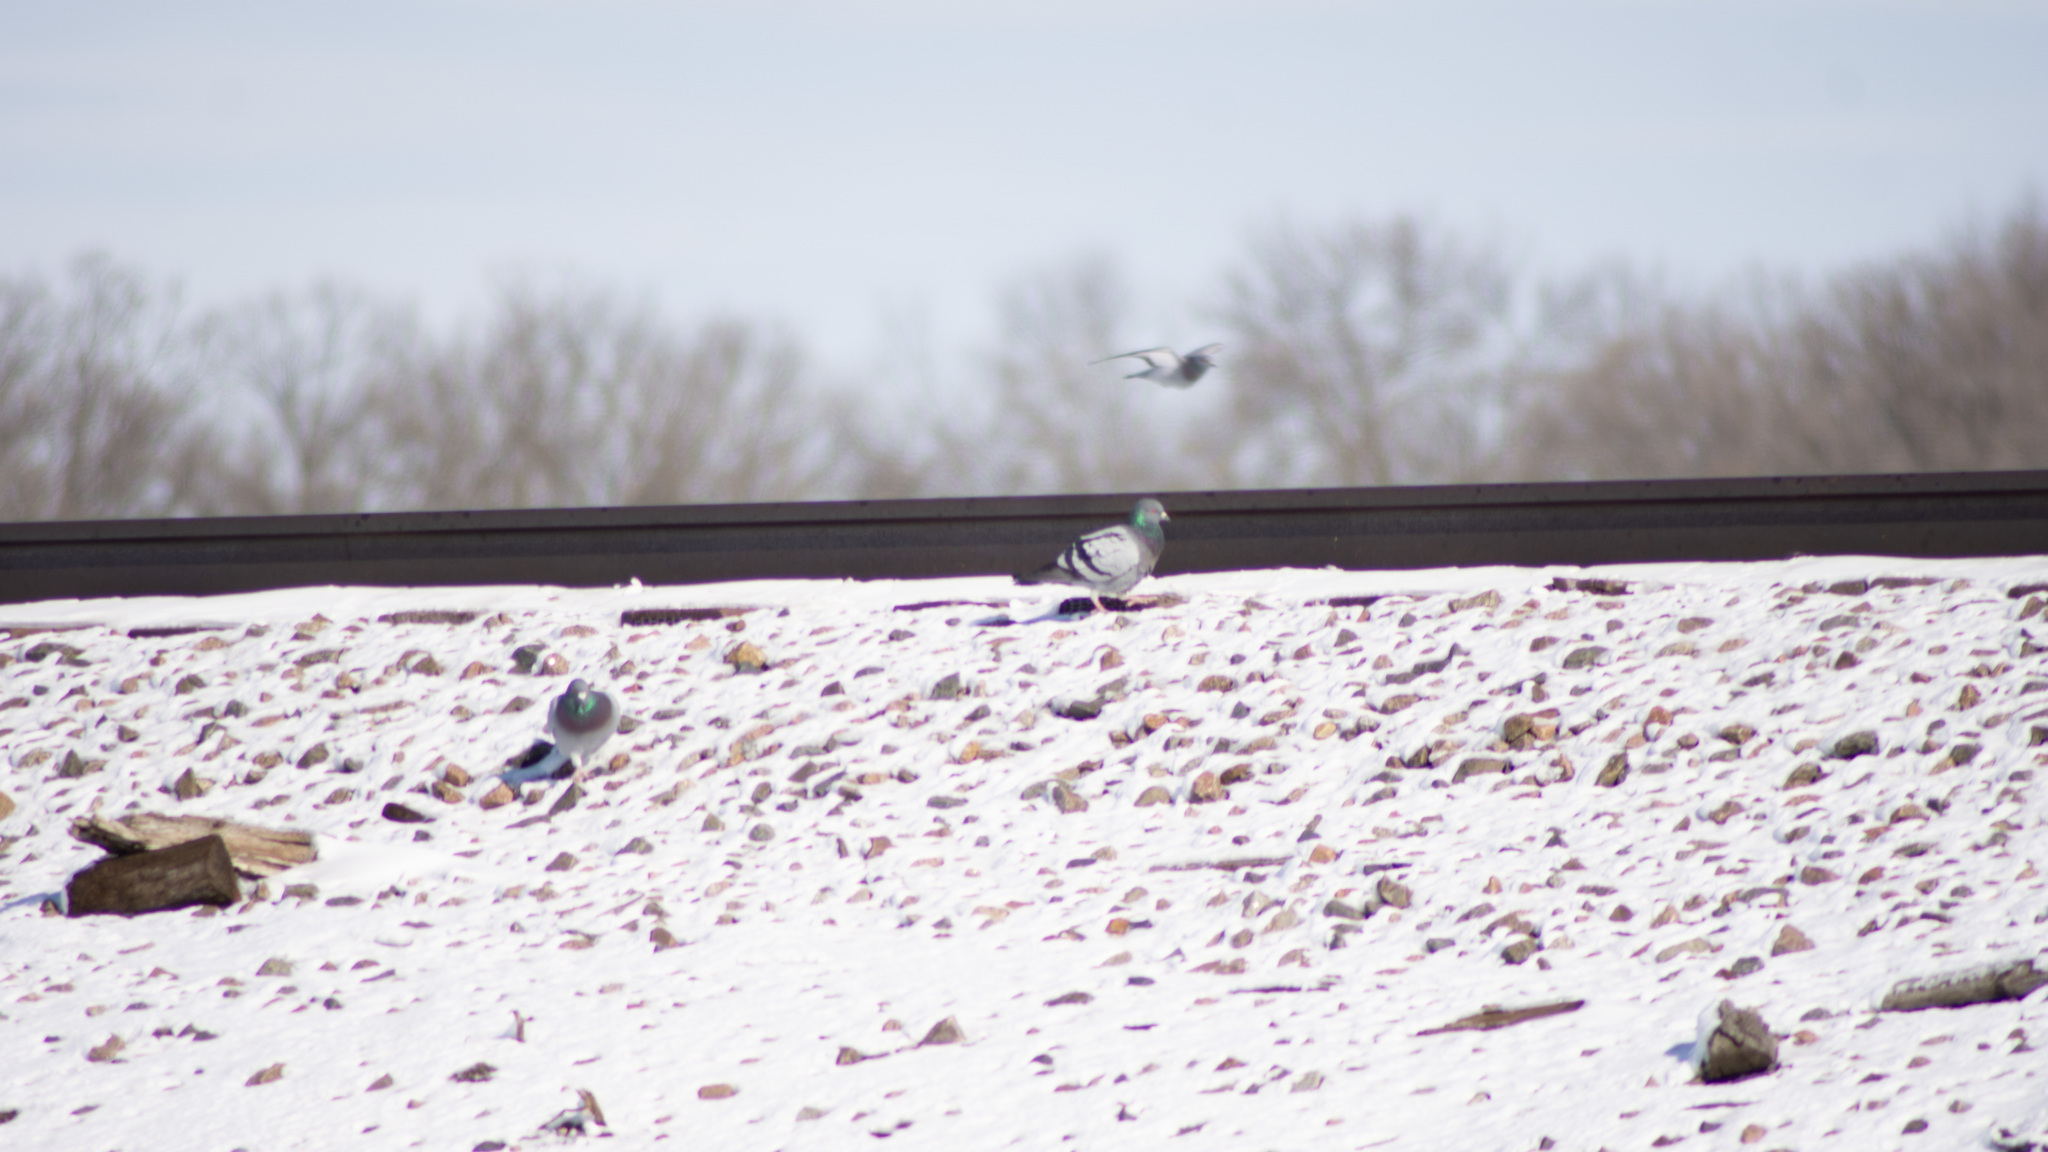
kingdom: Animalia
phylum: Chordata
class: Aves
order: Columbiformes
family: Columbidae
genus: Columba
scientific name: Columba livia
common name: Rock pigeon
